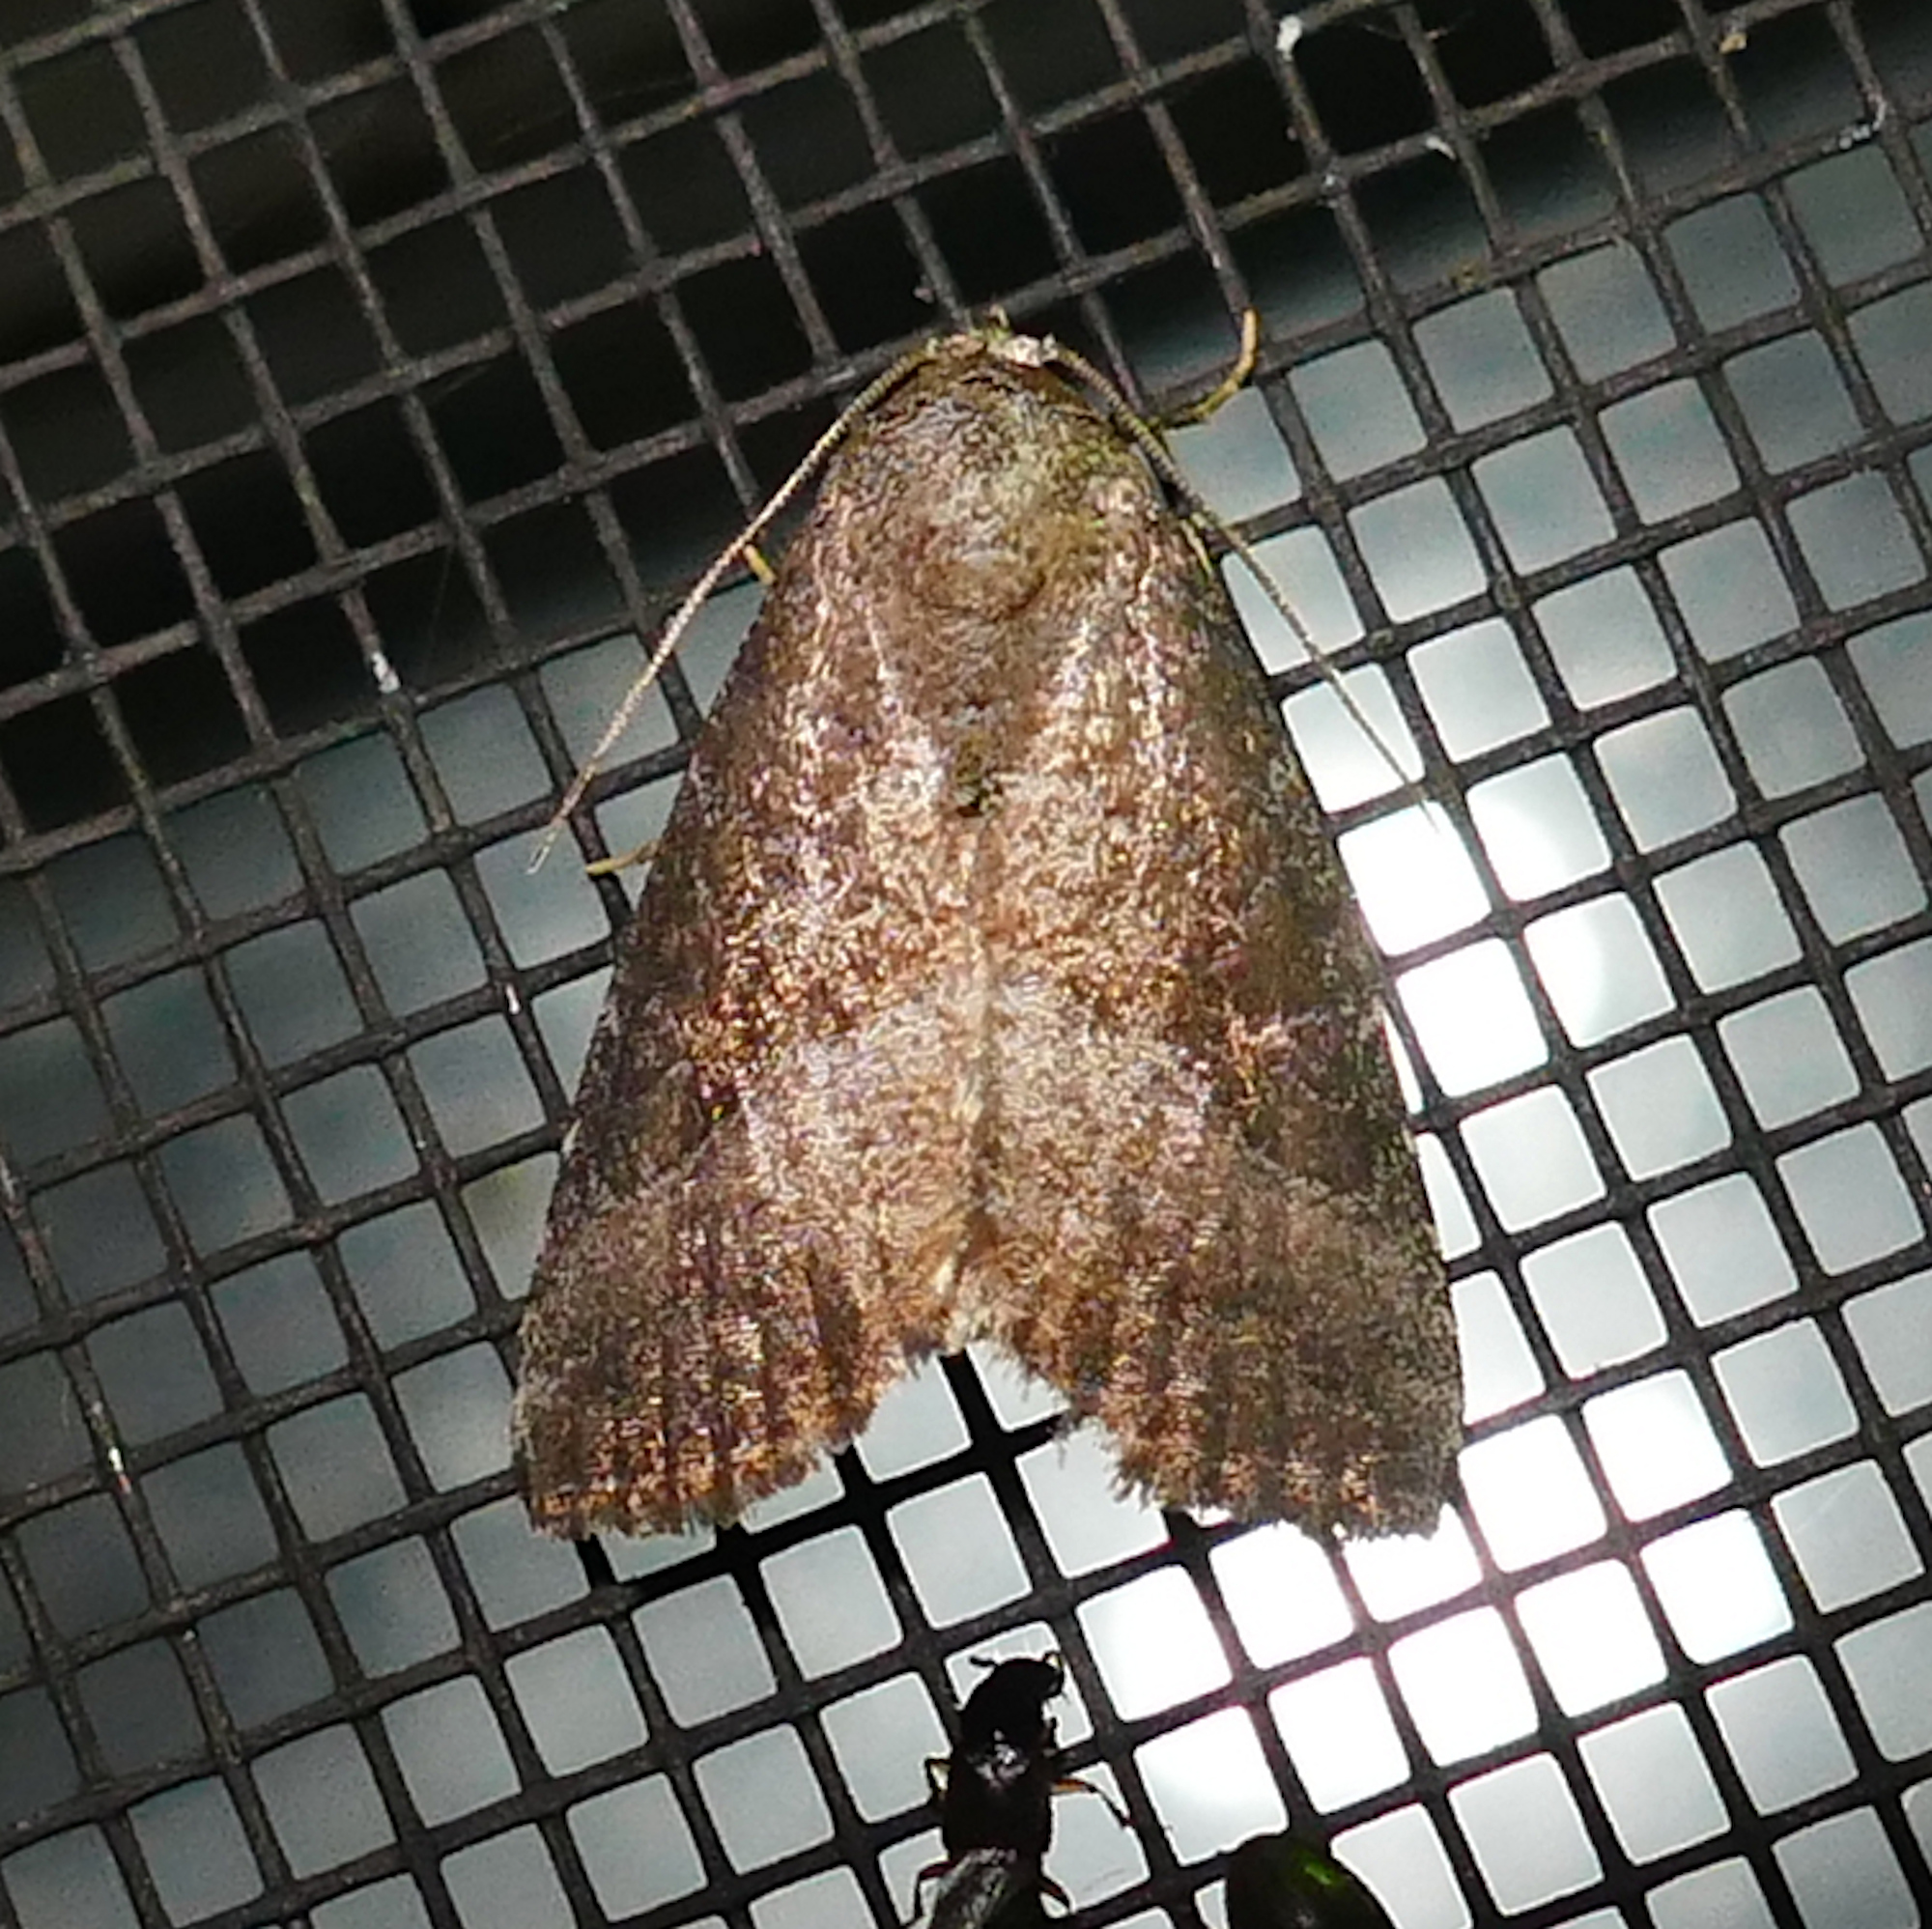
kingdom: Animalia
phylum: Arthropoda
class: Insecta
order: Lepidoptera
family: Noctuidae
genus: Ogdoconta
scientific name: Ogdoconta cinereola
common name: Common pinkband
